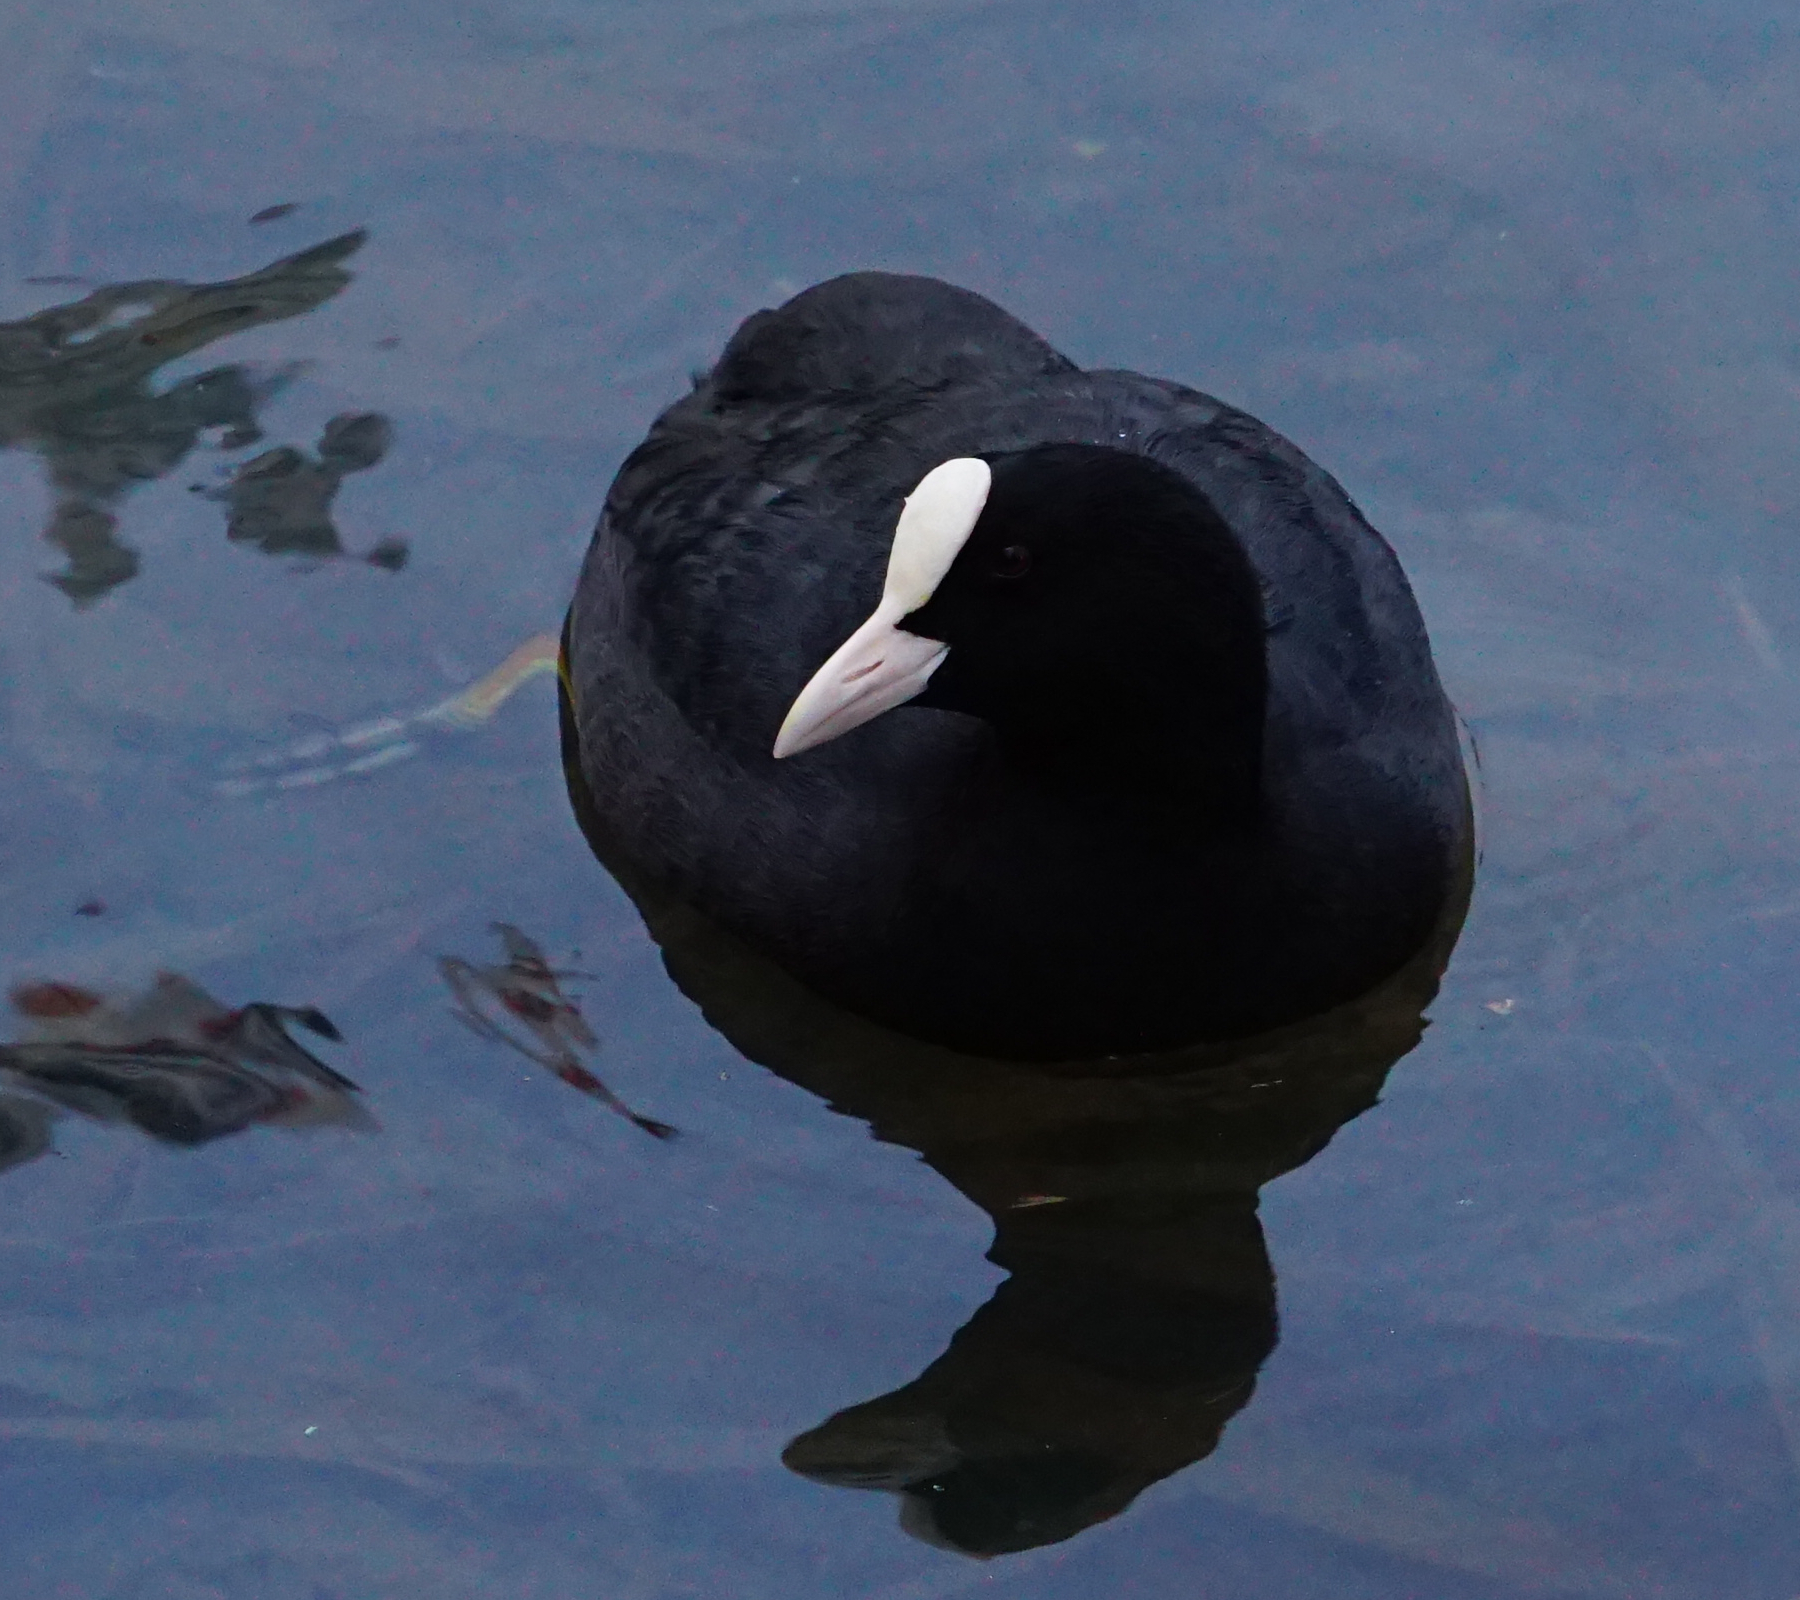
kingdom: Animalia
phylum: Chordata
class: Aves
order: Gruiformes
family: Rallidae
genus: Fulica
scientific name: Fulica atra
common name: Eurasian coot
